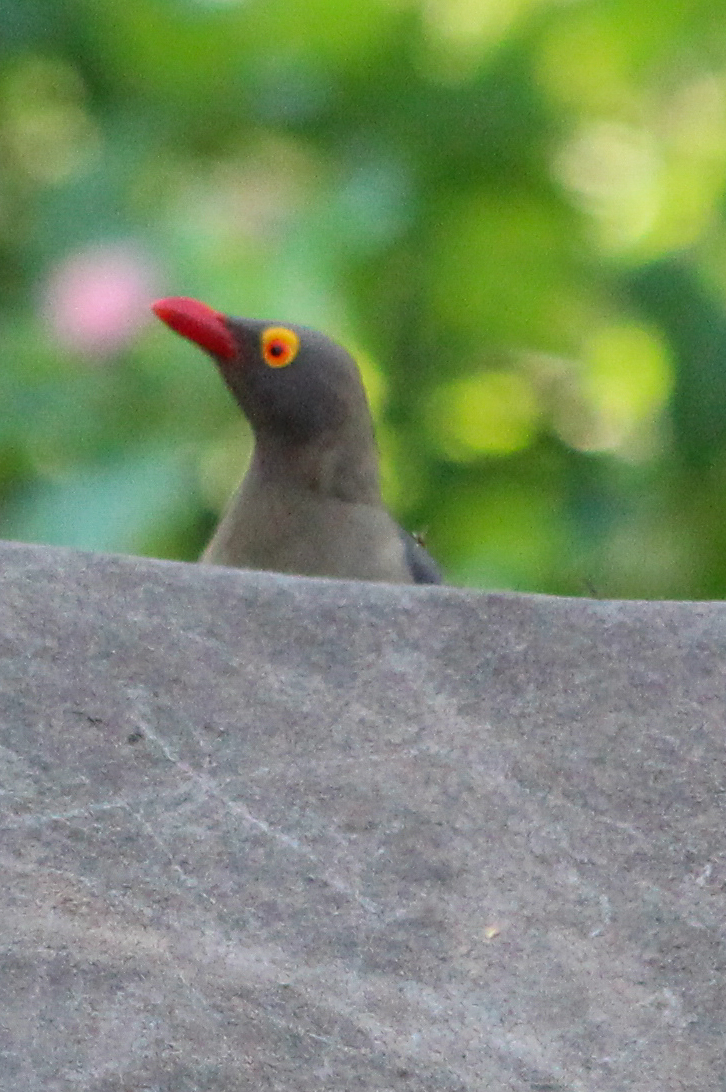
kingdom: Animalia
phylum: Chordata
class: Aves
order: Passeriformes
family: Buphagidae
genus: Buphagus
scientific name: Buphagus erythrorhynchus
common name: Red-billed oxpecker
